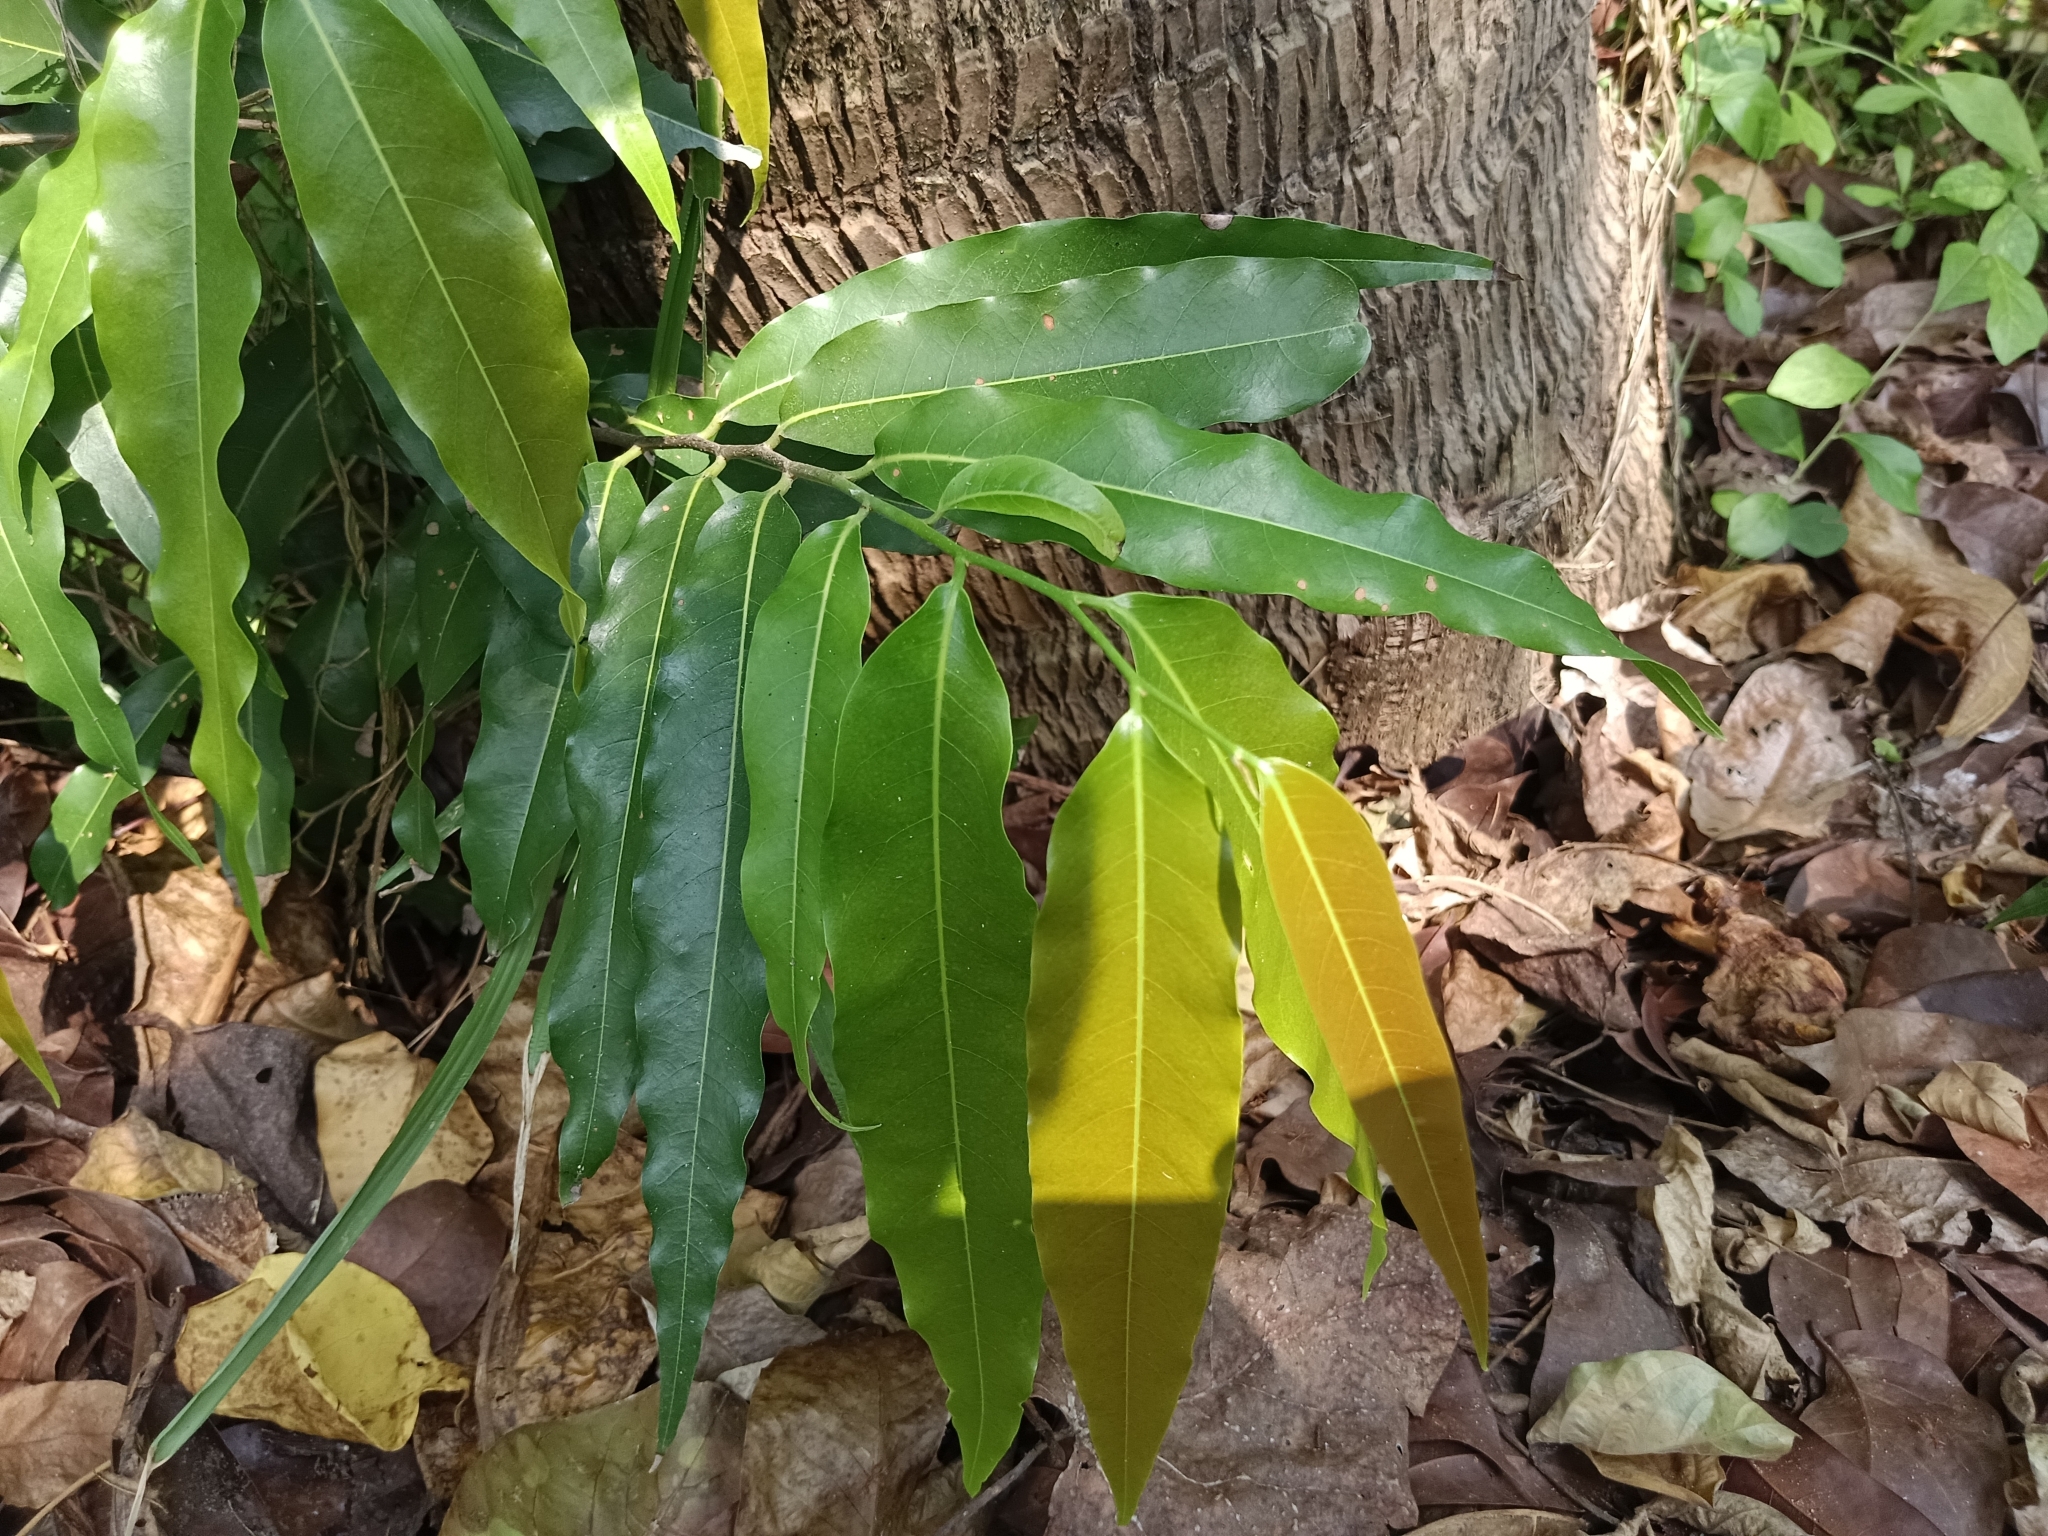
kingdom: Plantae
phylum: Tracheophyta
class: Magnoliopsida
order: Magnoliales
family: Annonaceae
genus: Polyalthia
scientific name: Polyalthia longifolia
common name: Cemetery-tree
